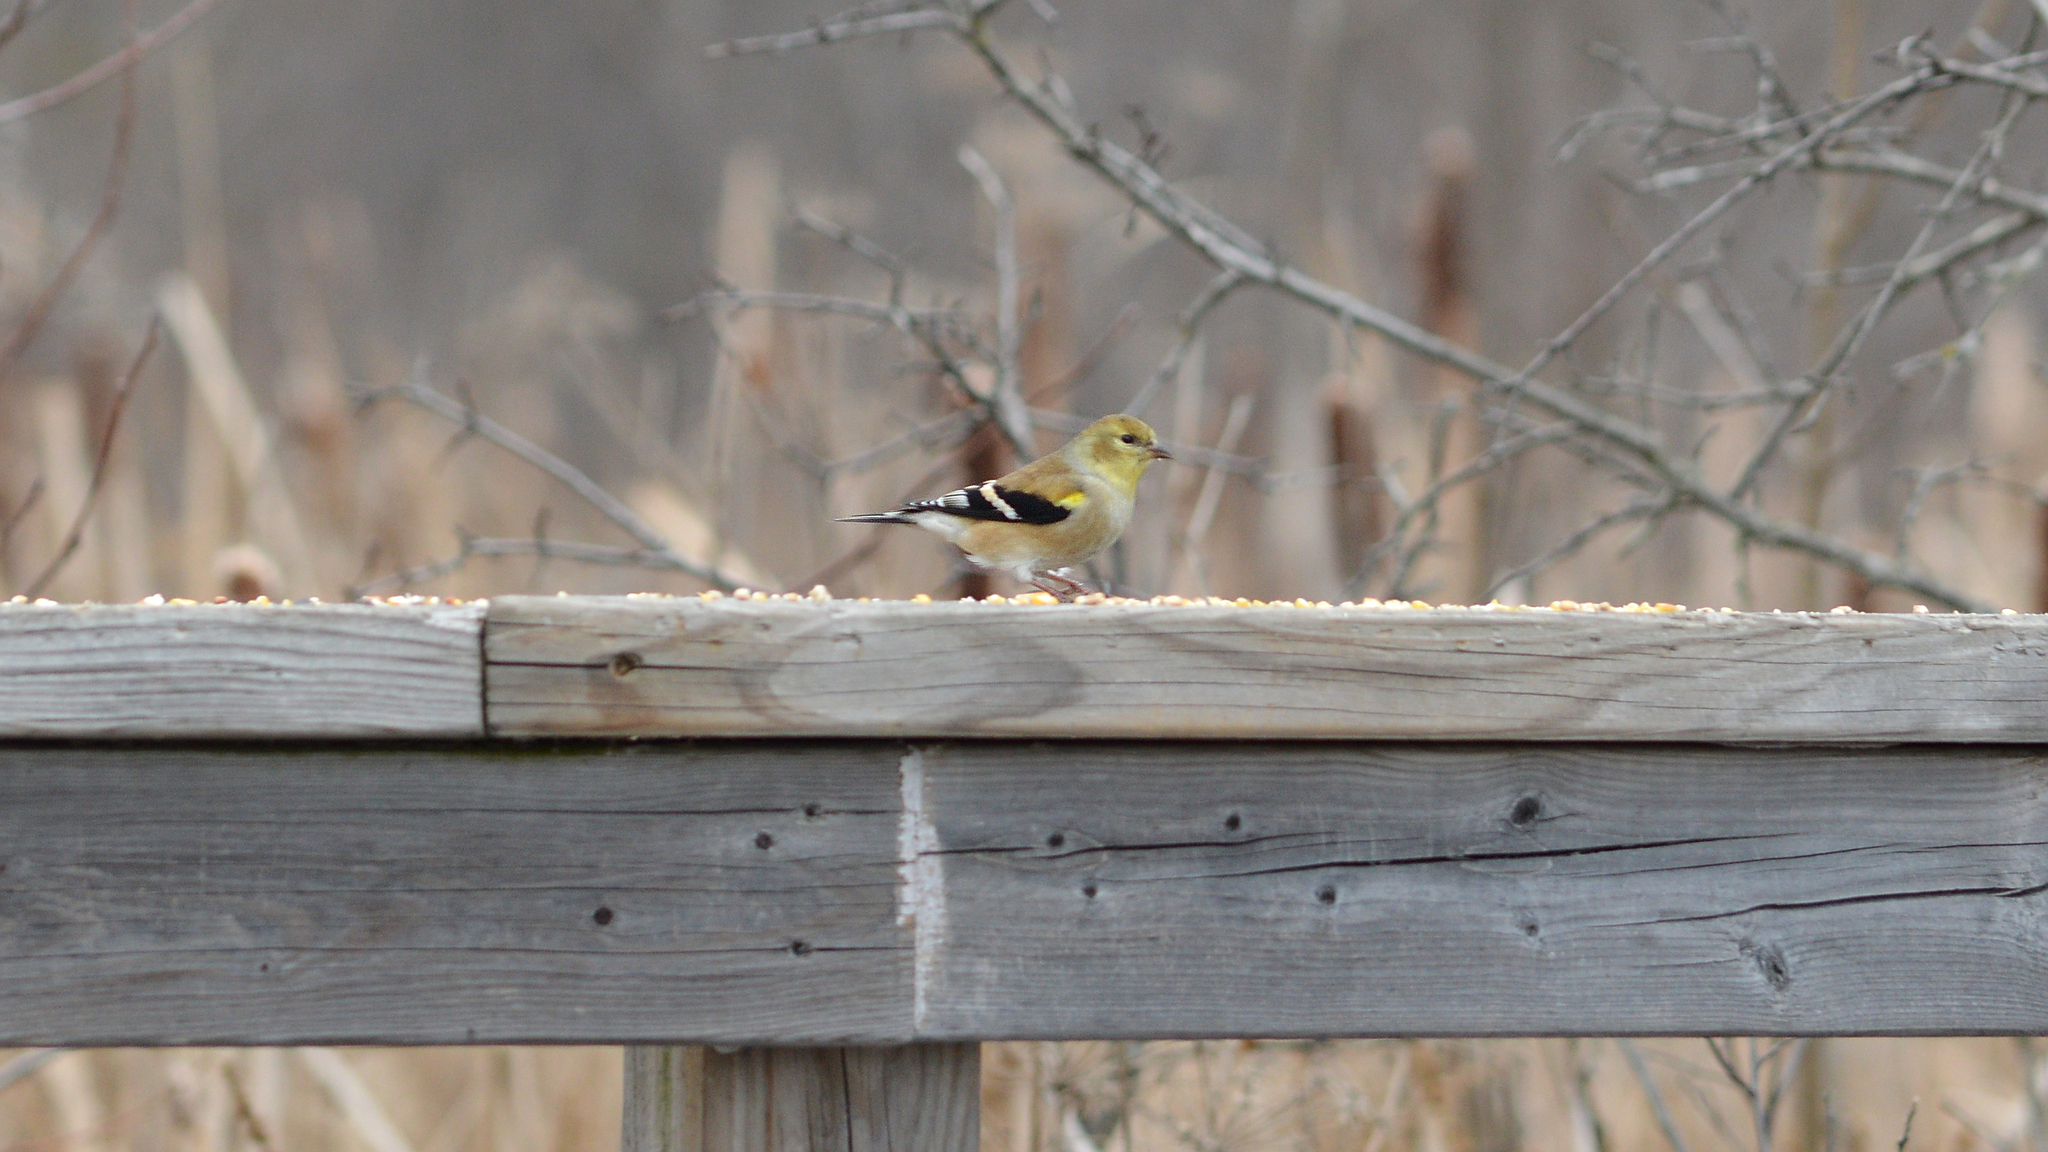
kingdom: Animalia
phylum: Chordata
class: Aves
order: Passeriformes
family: Fringillidae
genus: Spinus
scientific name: Spinus tristis
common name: American goldfinch
